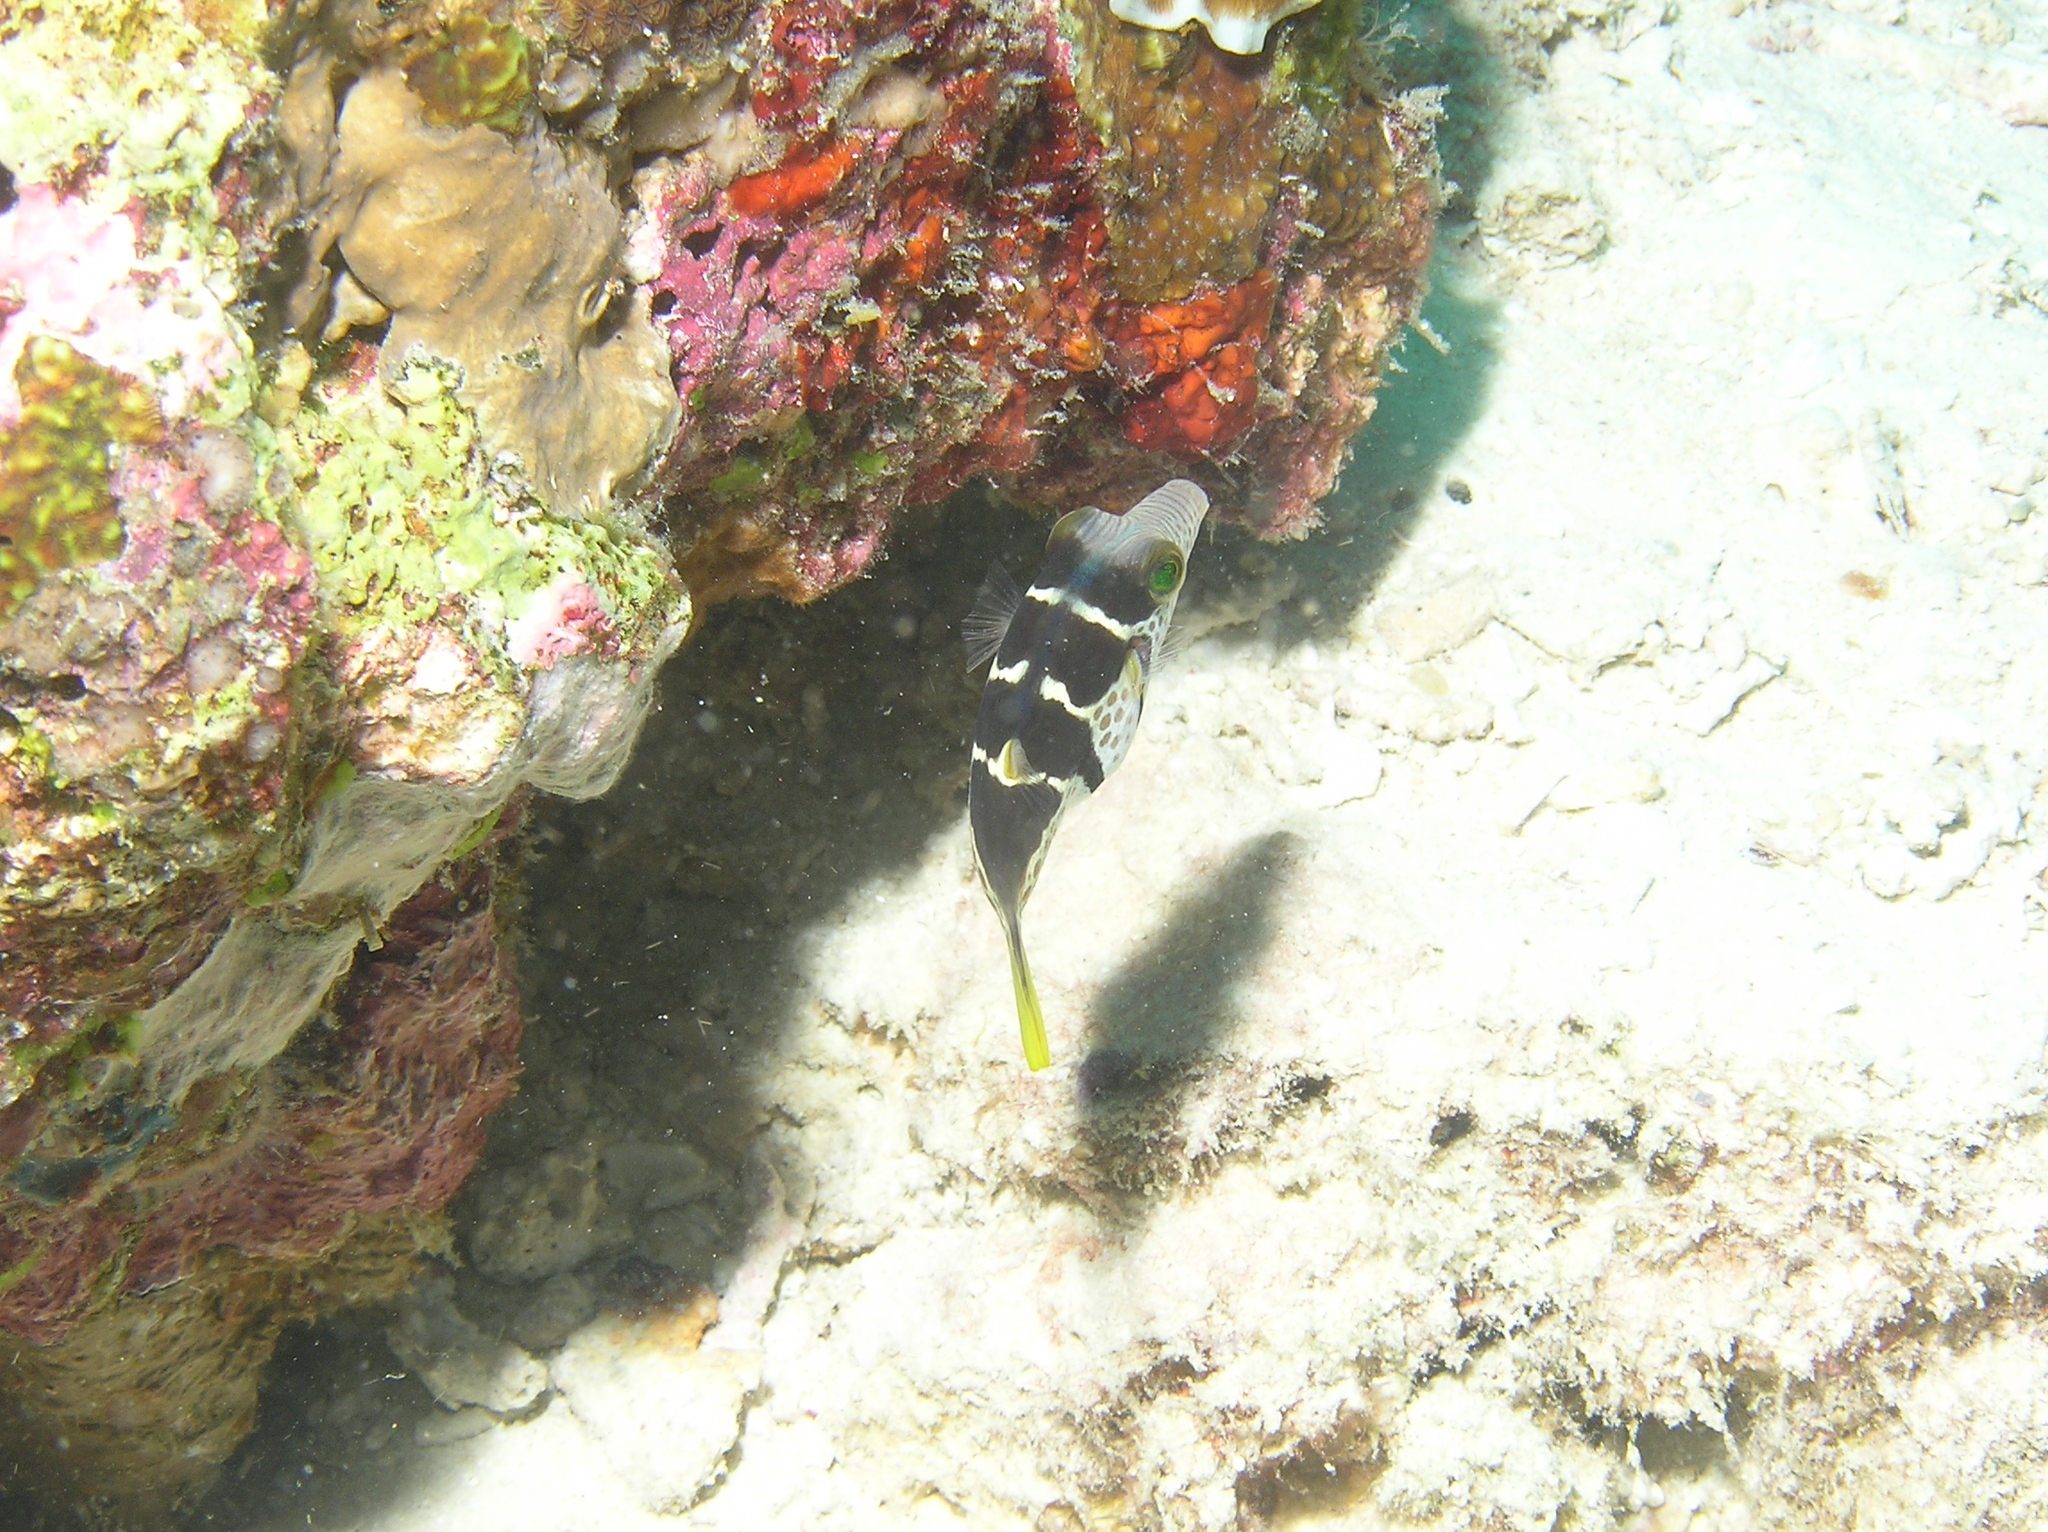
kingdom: Animalia
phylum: Chordata
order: Tetraodontiformes
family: Tetraodontidae
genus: Canthigaster
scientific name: Canthigaster valentini
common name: Banded toby
